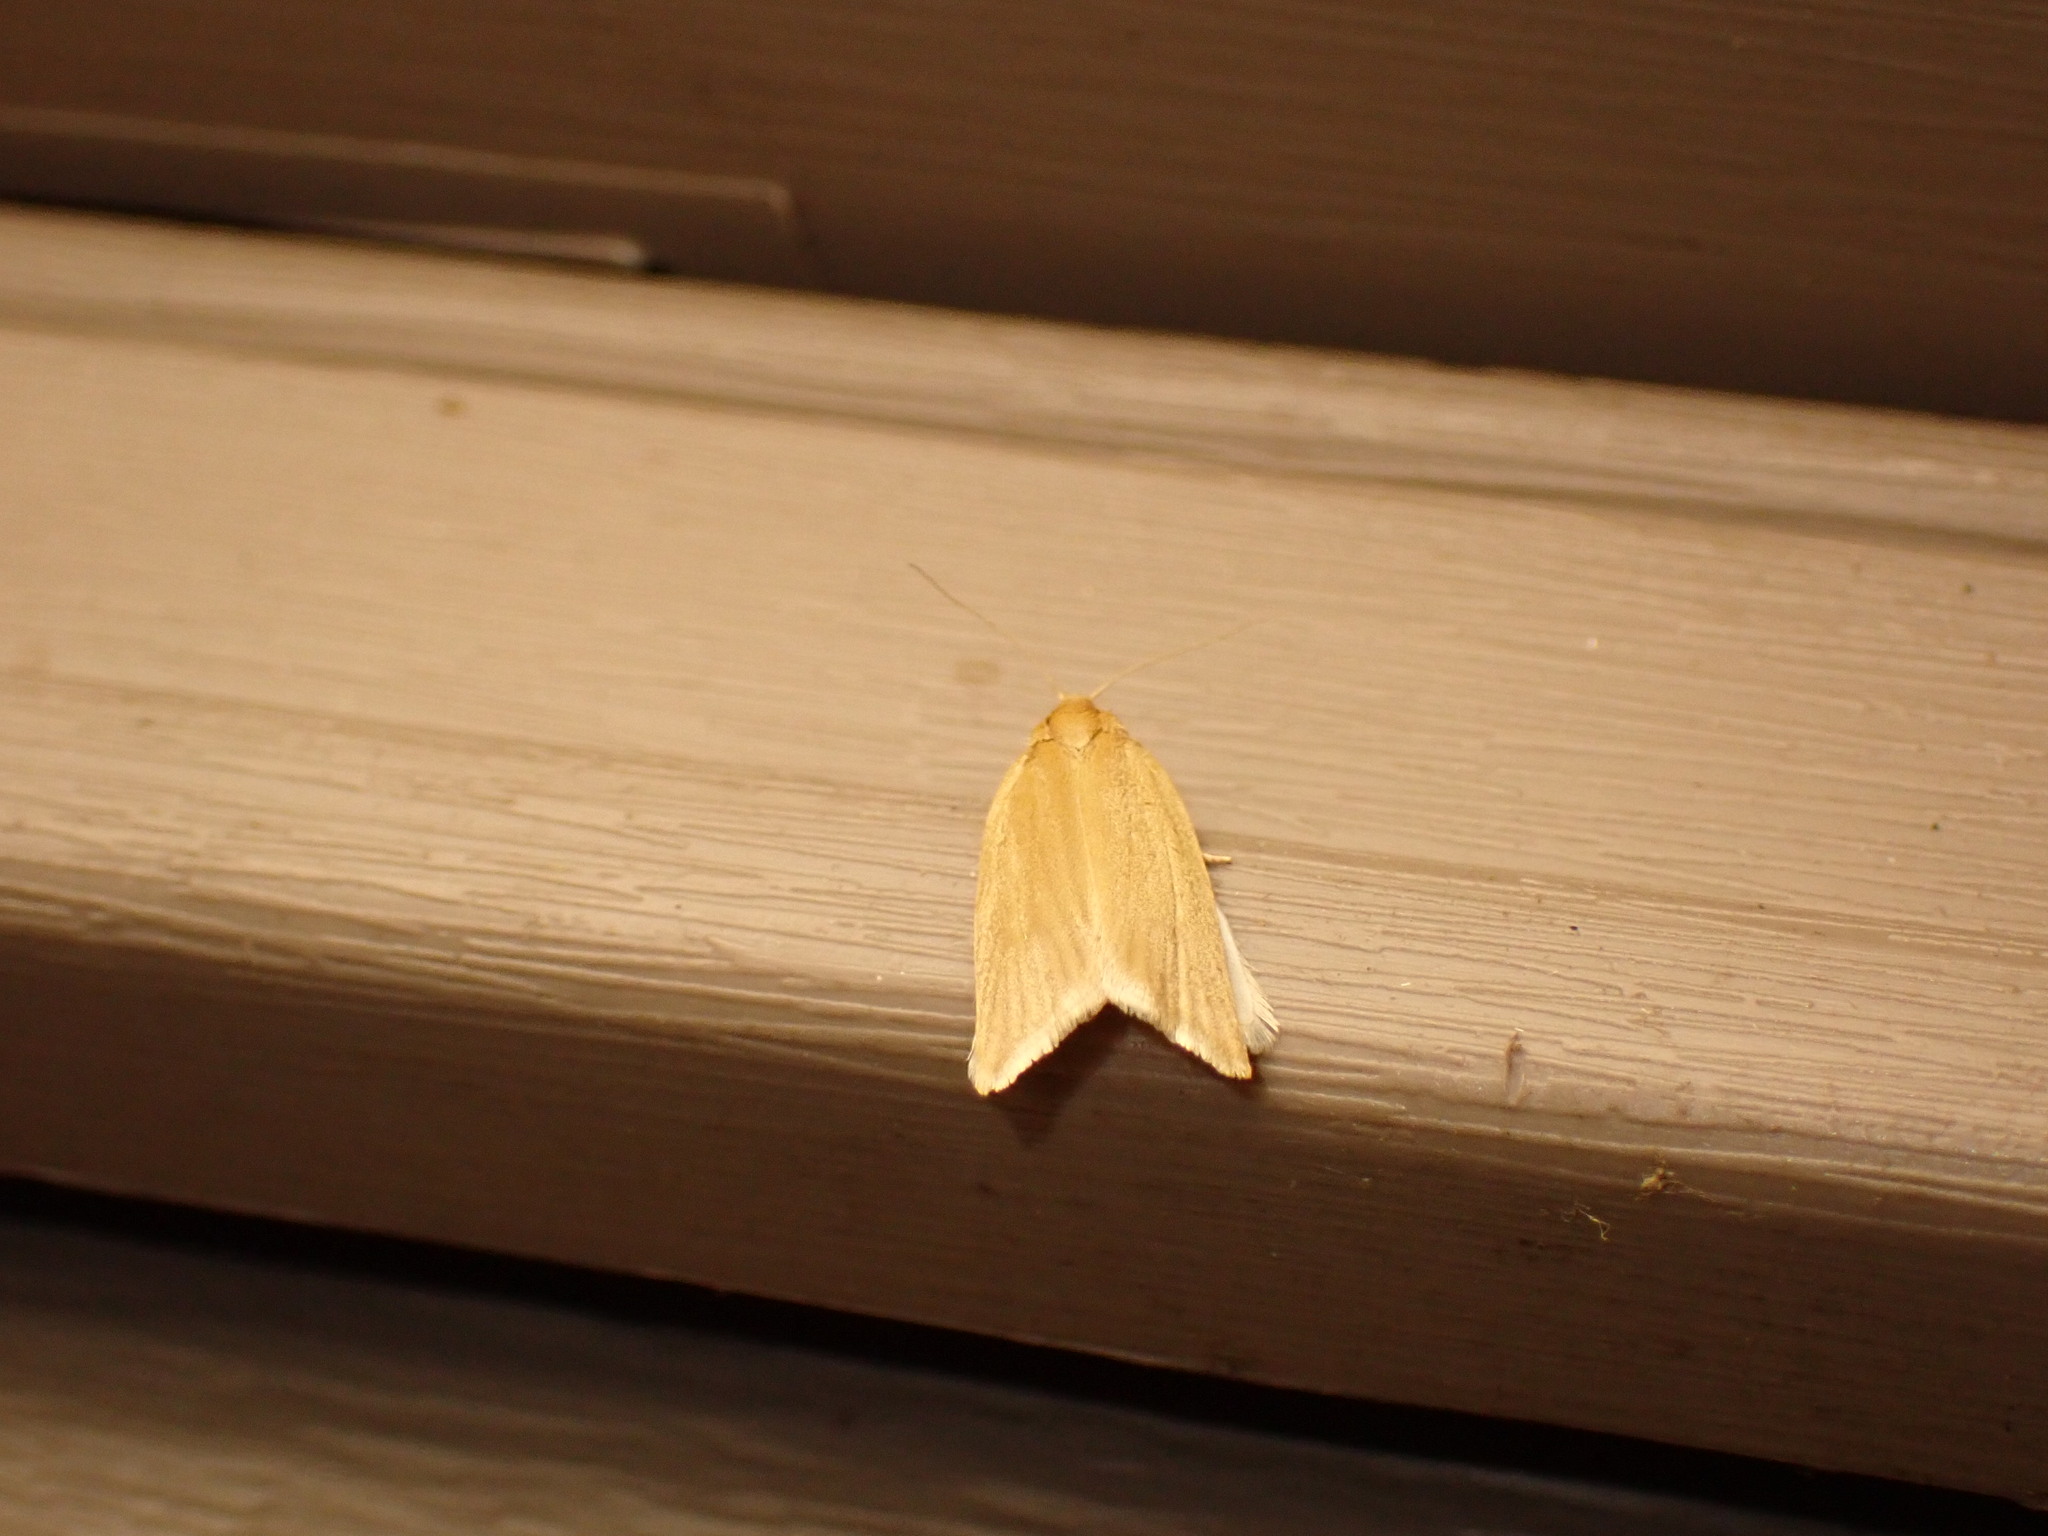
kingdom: Animalia
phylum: Arthropoda
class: Insecta
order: Lepidoptera
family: Tortricidae
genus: Clepsis
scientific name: Clepsis clemensiana
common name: Clemens' clepsis moth
